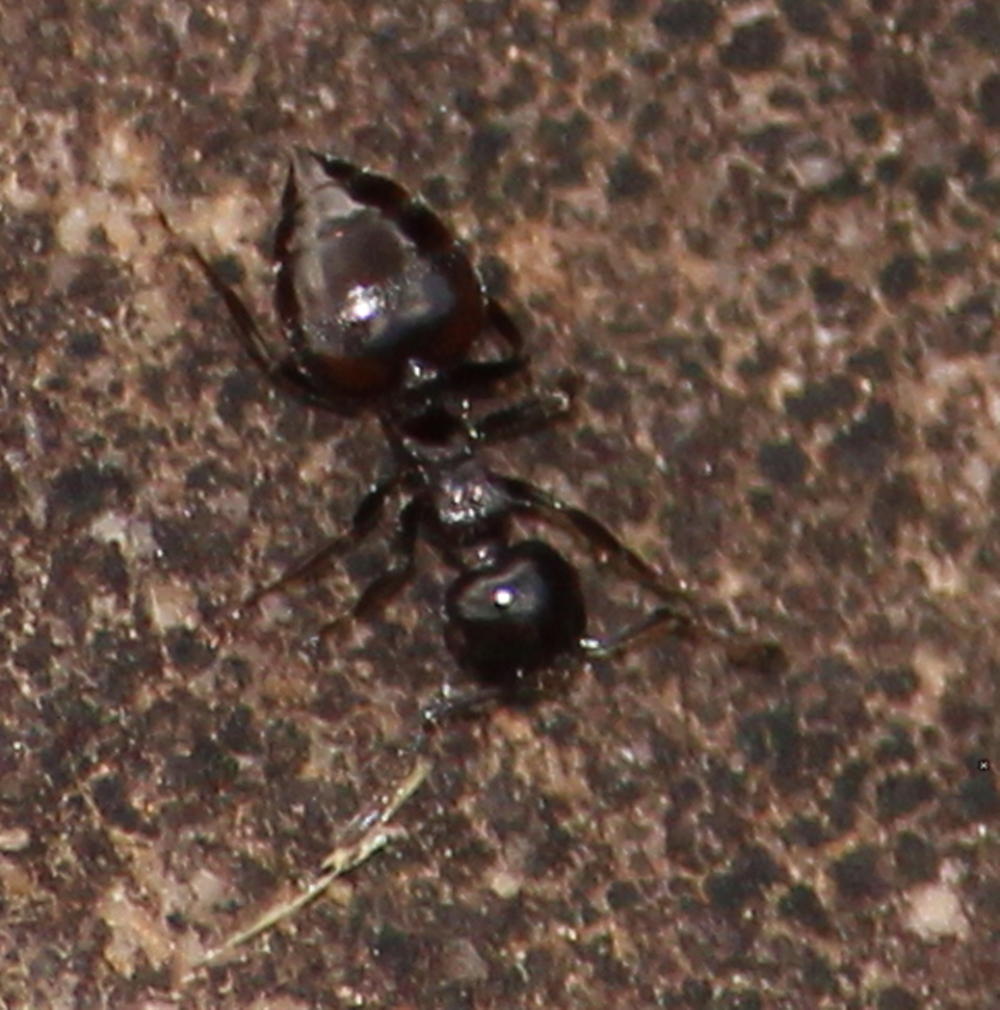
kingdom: Animalia
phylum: Arthropoda
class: Insecta
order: Hymenoptera
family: Formicidae
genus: Crematogaster
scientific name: Crematogaster monticola
